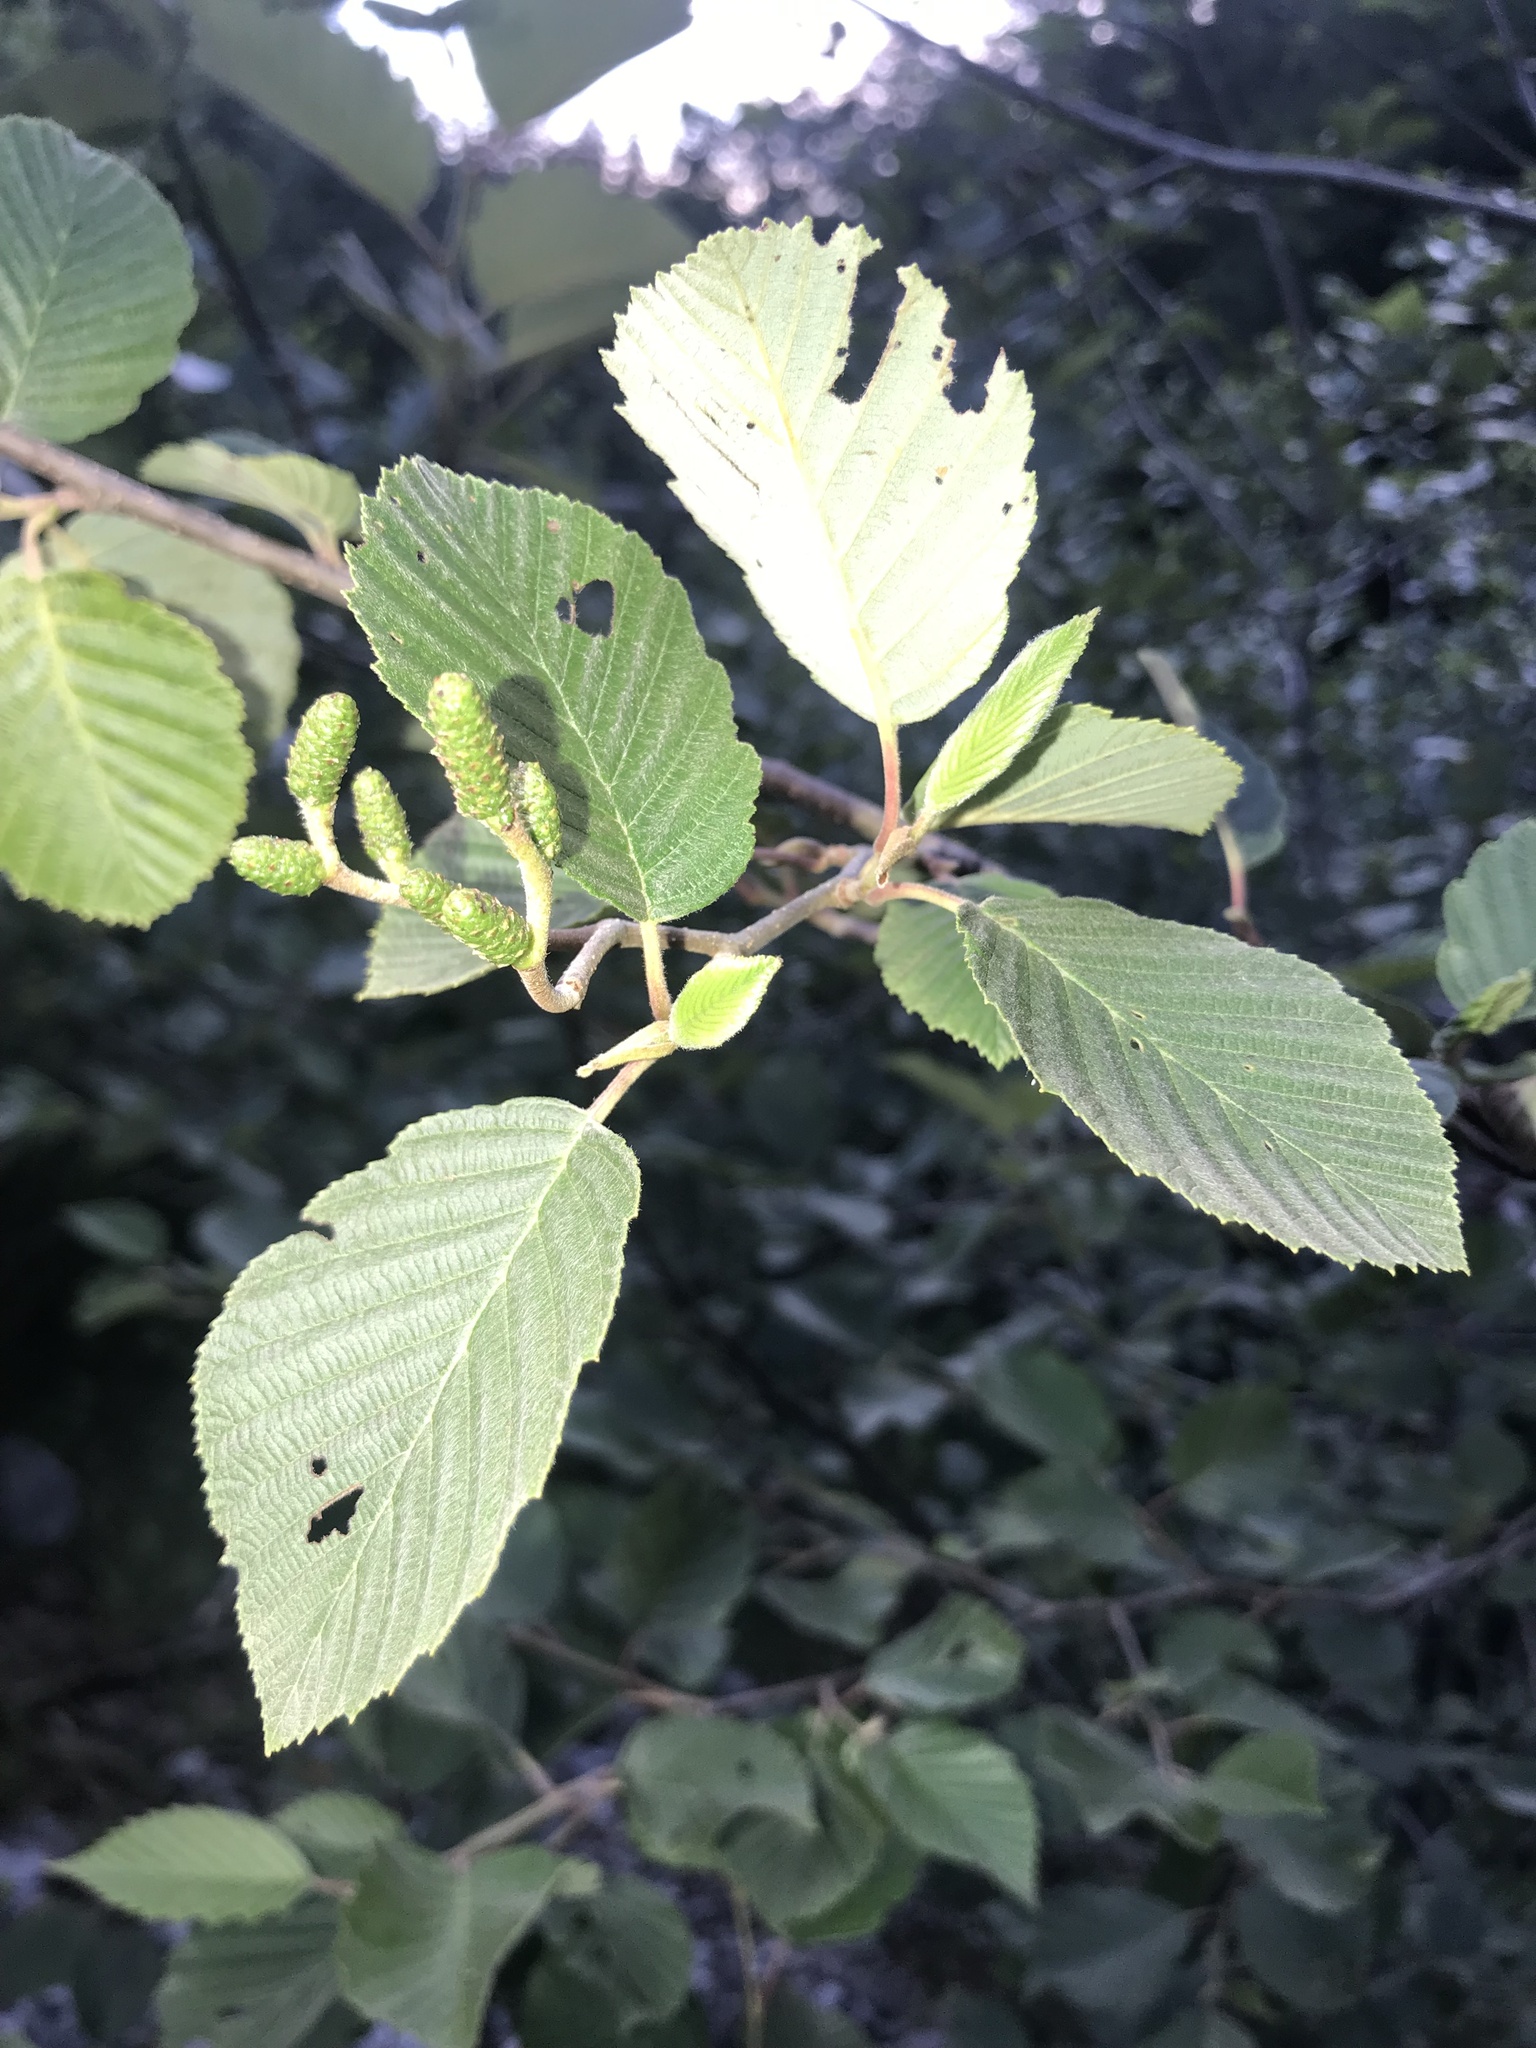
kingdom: Plantae
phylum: Tracheophyta
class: Magnoliopsida
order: Fagales
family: Betulaceae
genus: Alnus
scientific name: Alnus incana
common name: Grey alder
